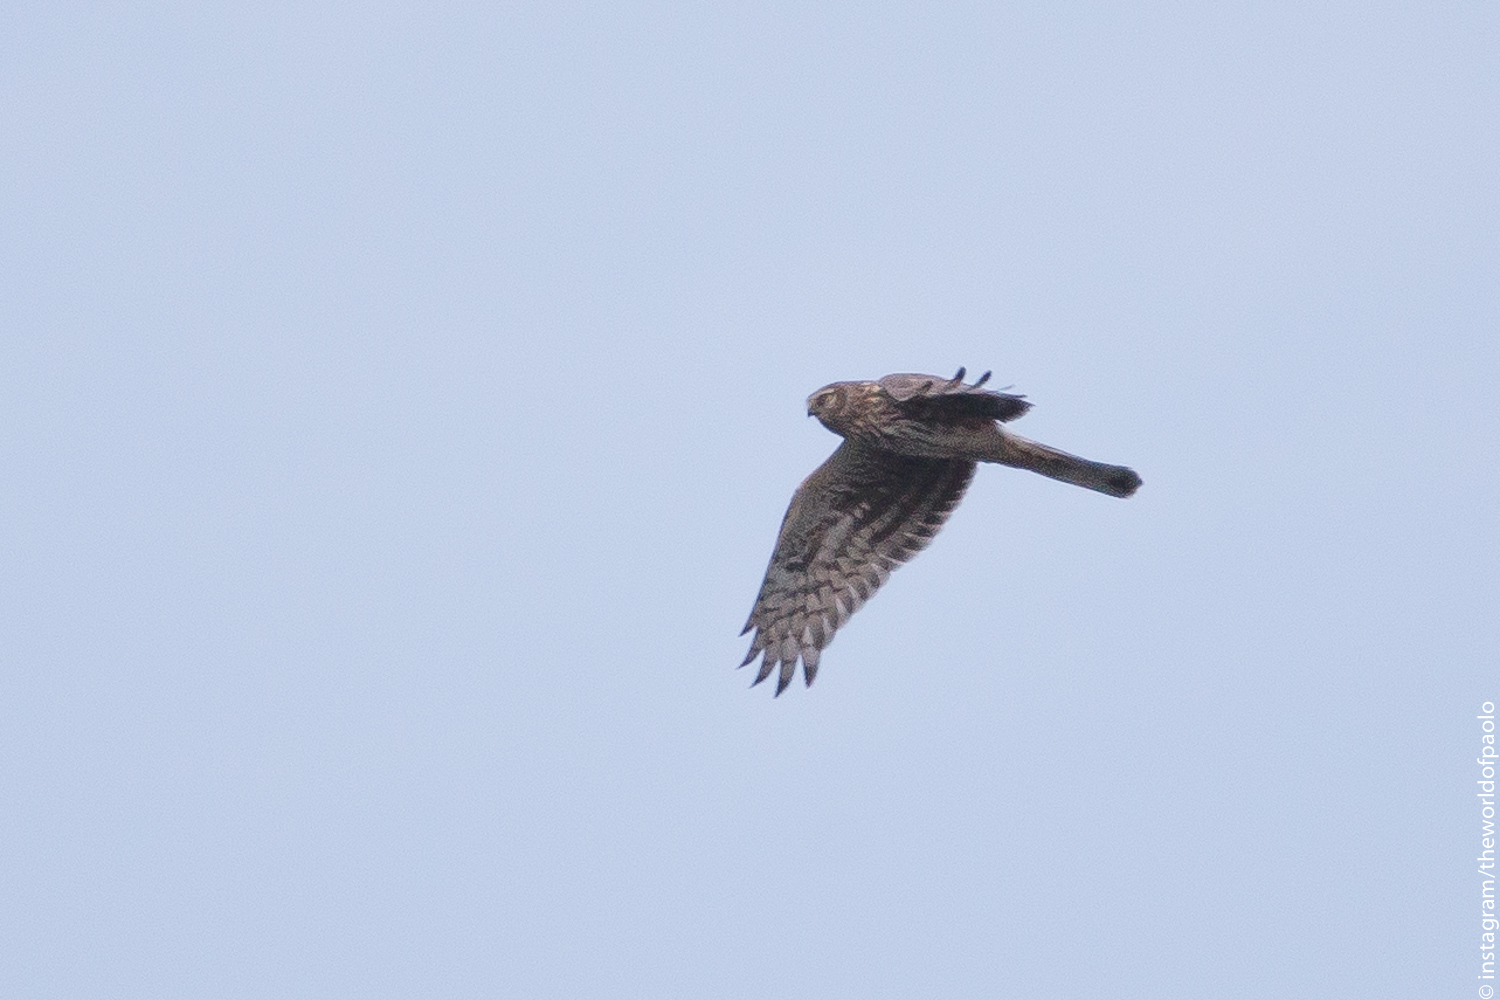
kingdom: Animalia
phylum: Chordata
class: Aves
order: Accipitriformes
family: Accipitridae
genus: Circus
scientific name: Circus cyaneus
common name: Hen harrier
